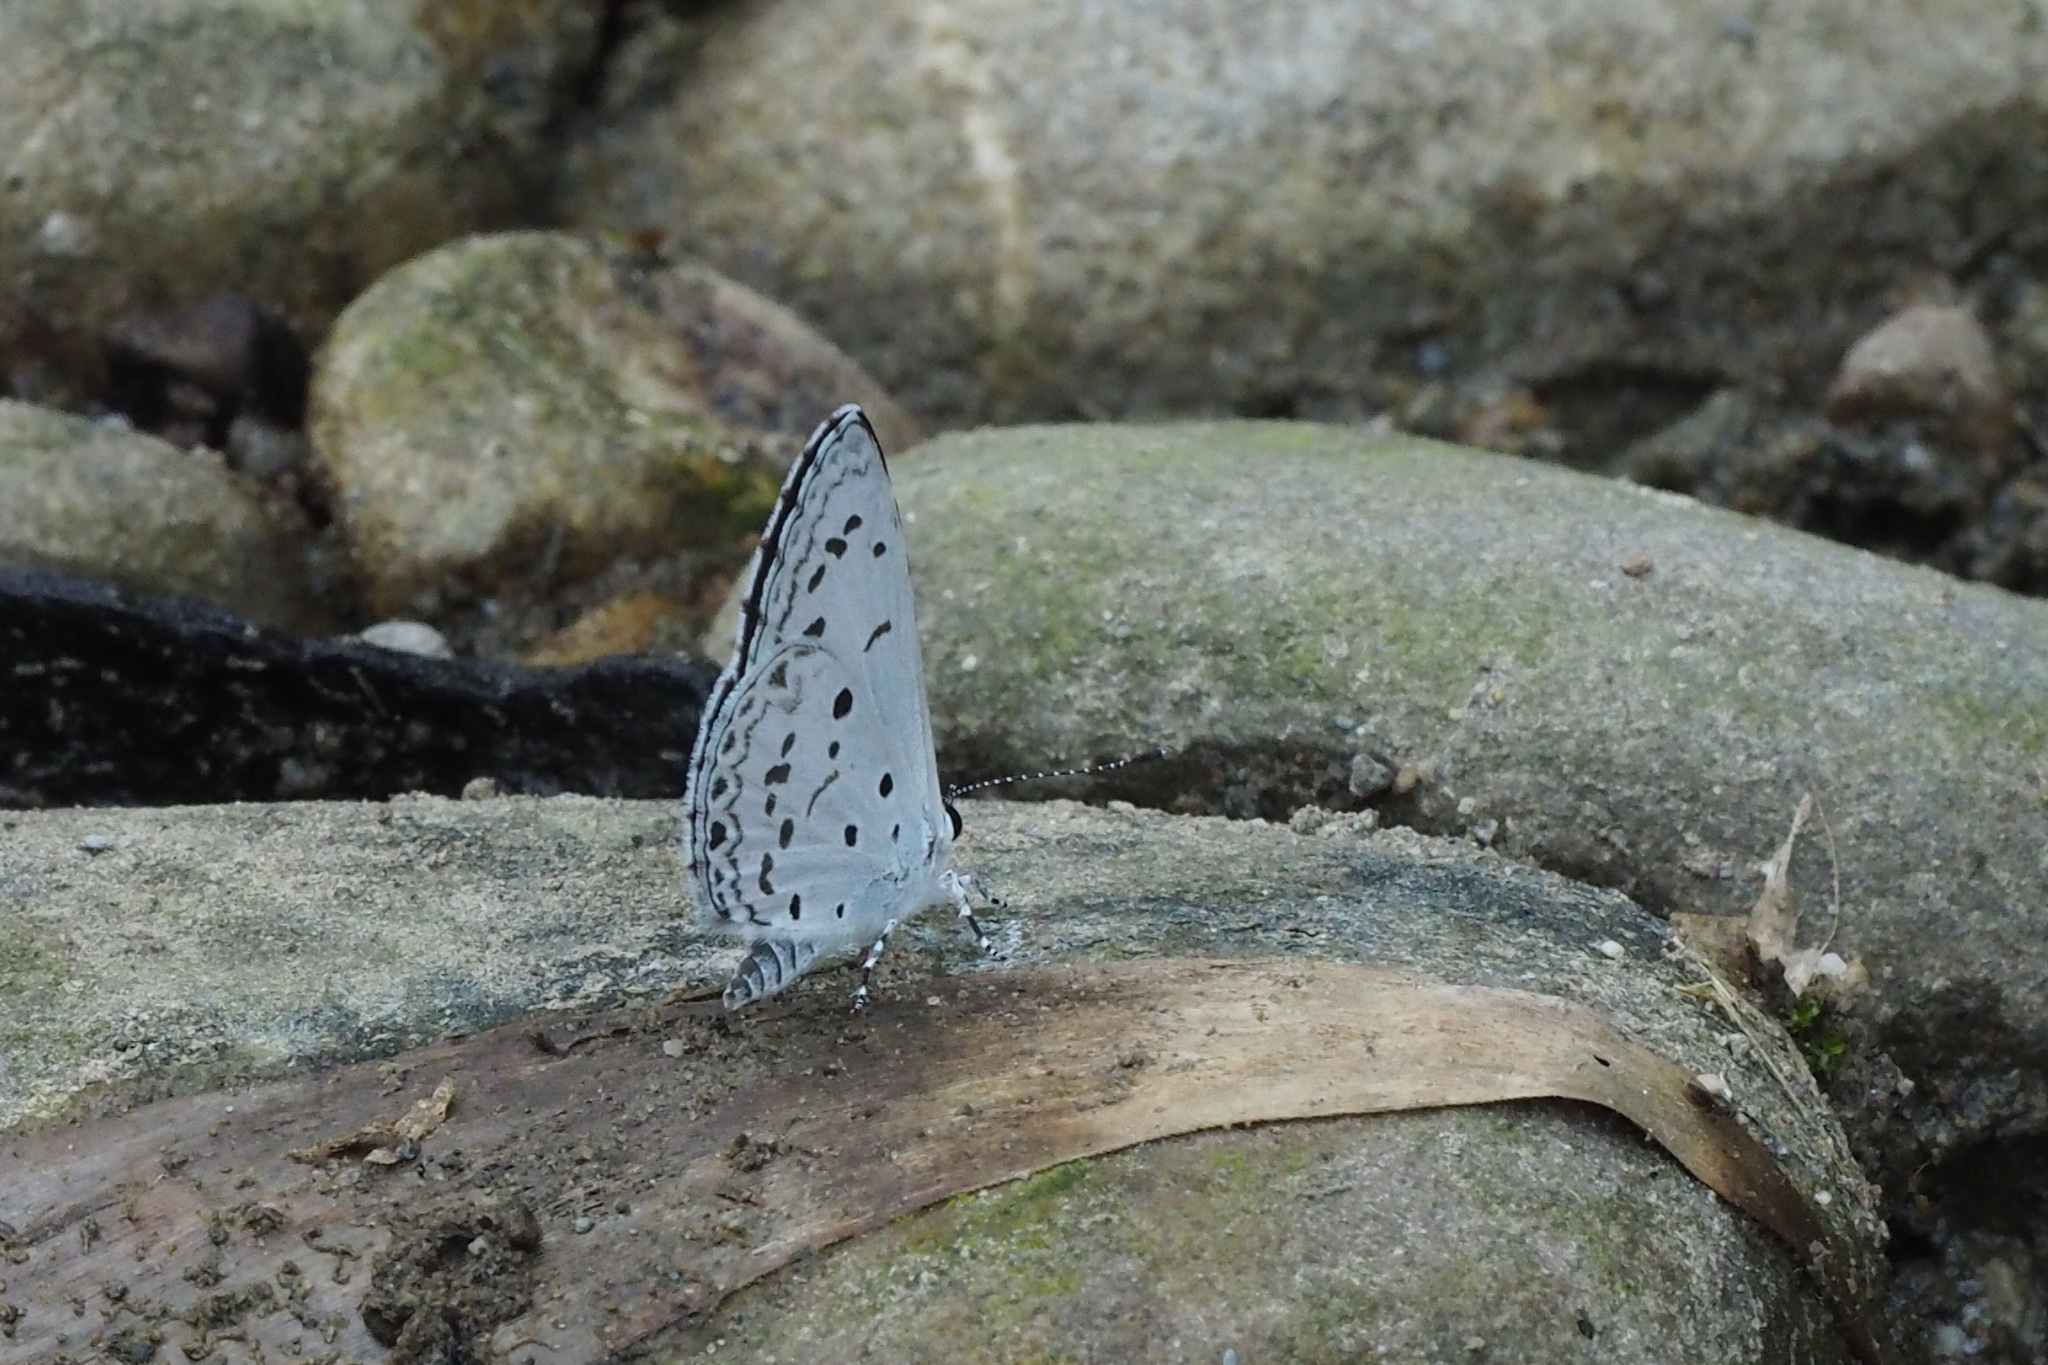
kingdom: Animalia
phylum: Arthropoda
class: Insecta
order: Lepidoptera
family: Lycaenidae
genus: Acytolepis
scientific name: Acytolepis puspa
